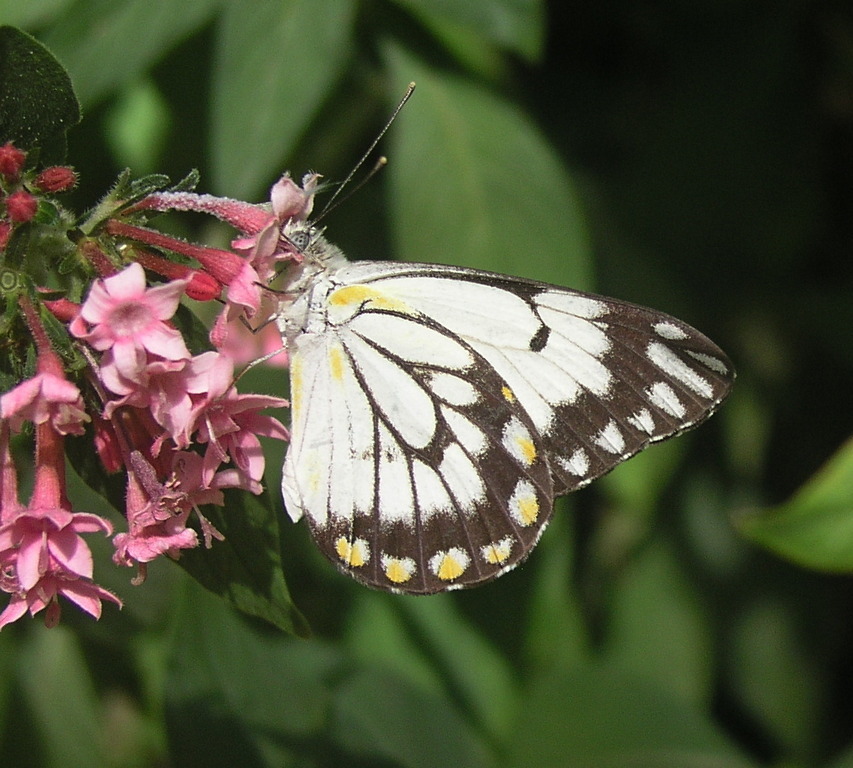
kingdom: Animalia
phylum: Arthropoda
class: Insecta
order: Lepidoptera
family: Pieridae
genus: Belenois
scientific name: Belenois java
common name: Caper white
